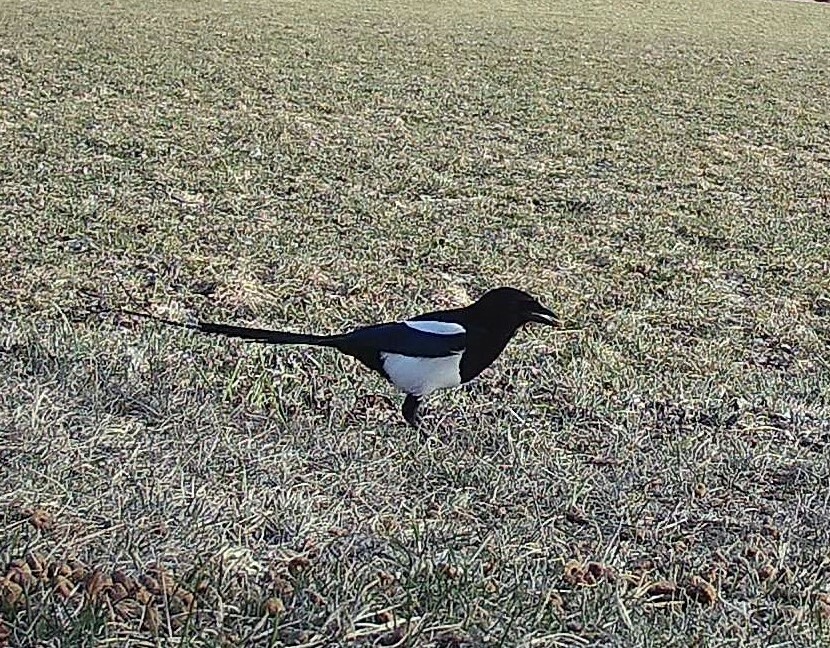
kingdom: Animalia
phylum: Chordata
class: Aves
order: Passeriformes
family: Corvidae
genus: Pica
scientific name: Pica pica
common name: Eurasian magpie
